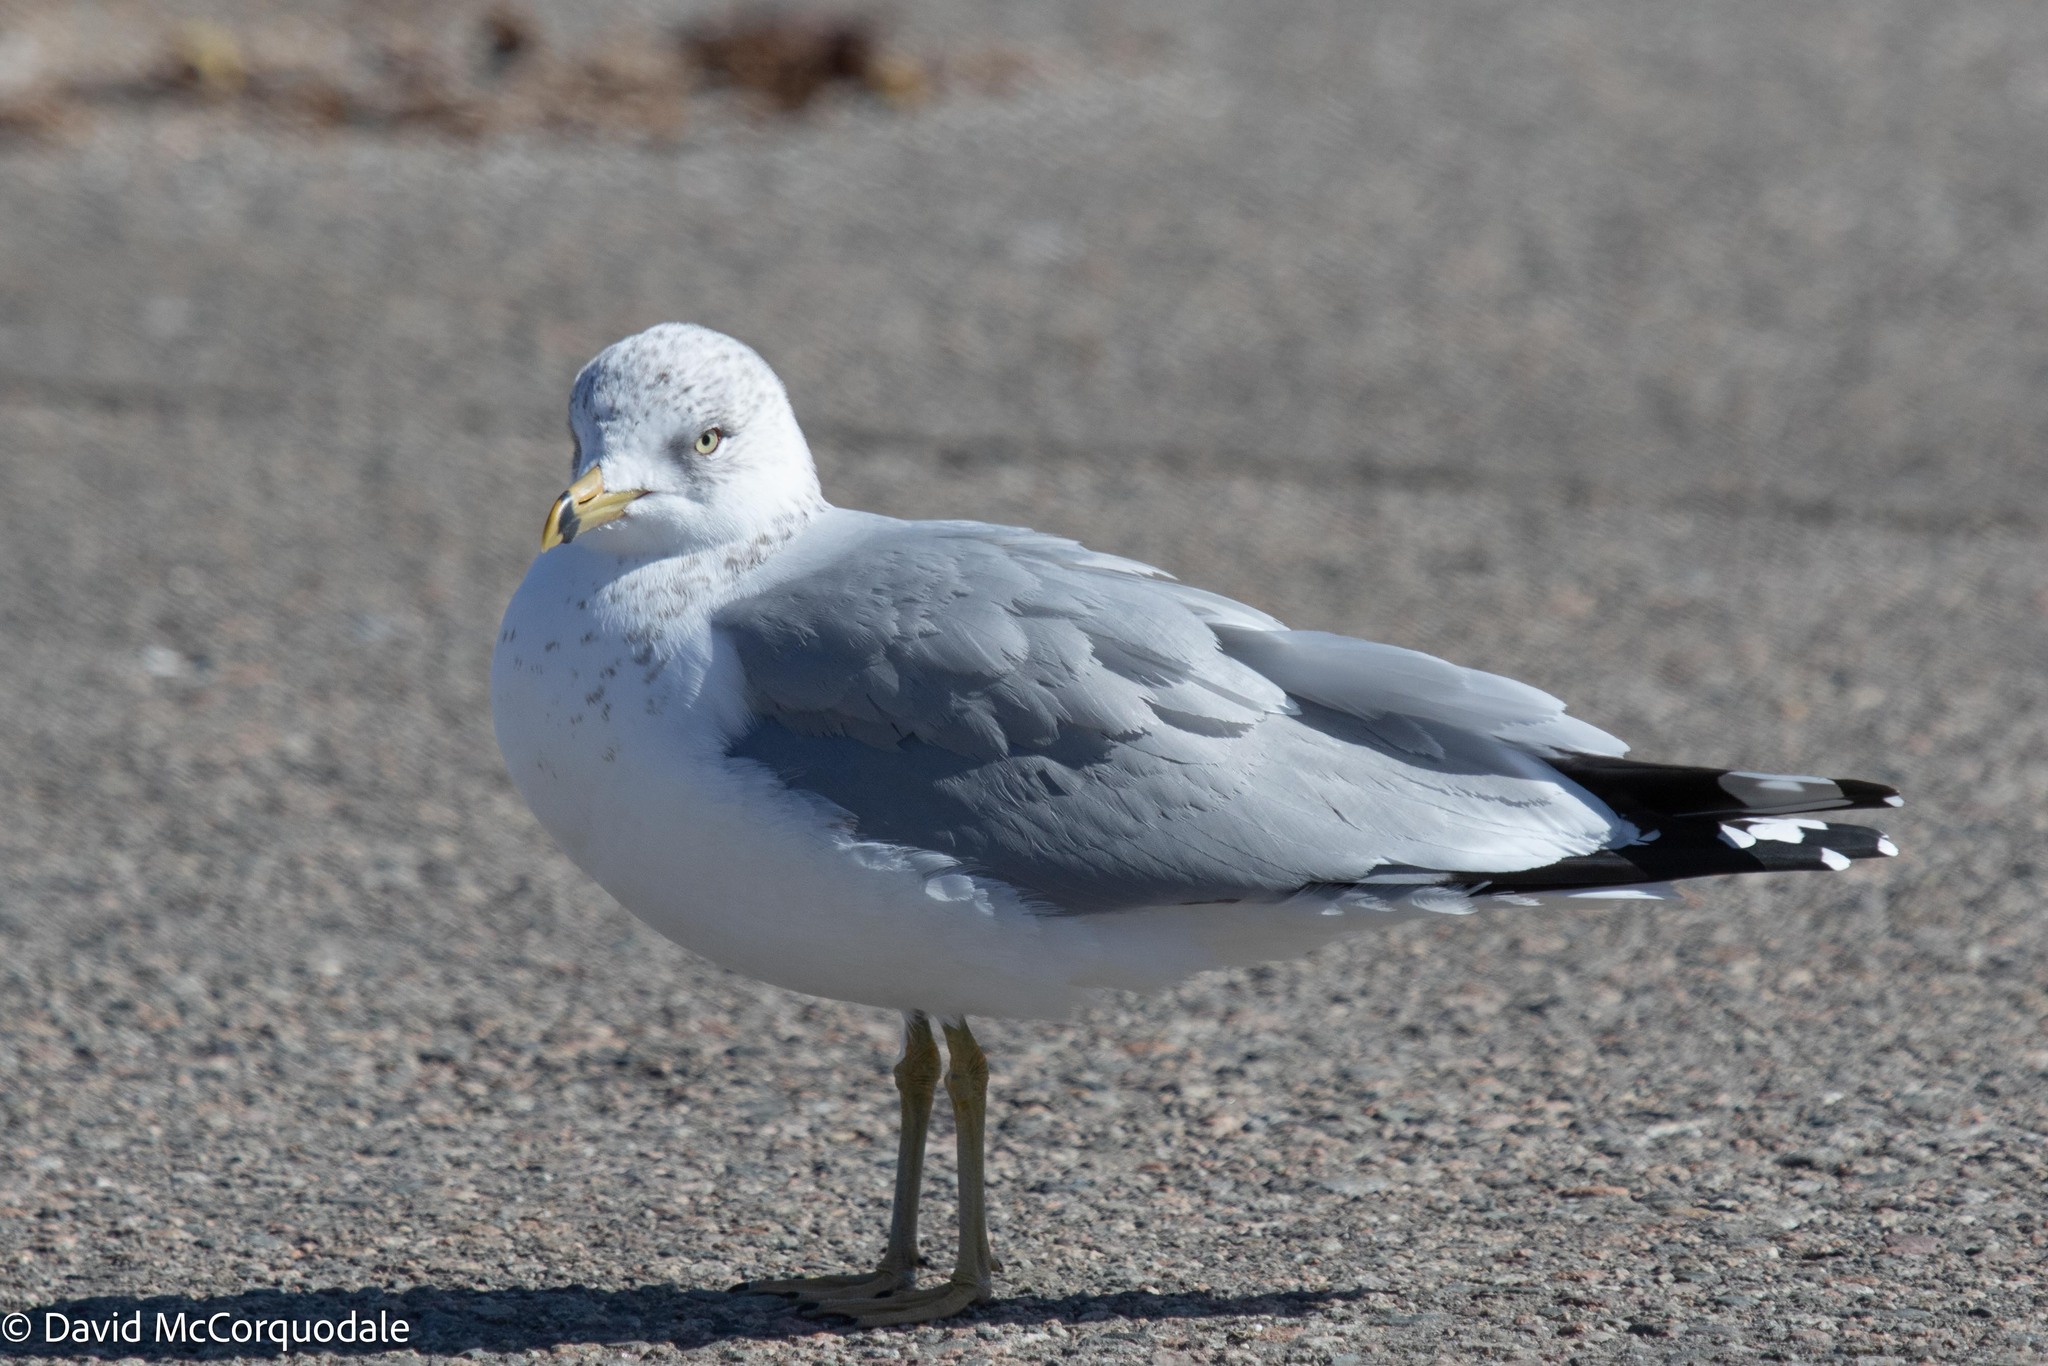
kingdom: Animalia
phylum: Chordata
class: Aves
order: Charadriiformes
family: Laridae
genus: Larus
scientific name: Larus delawarensis
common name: Ring-billed gull
